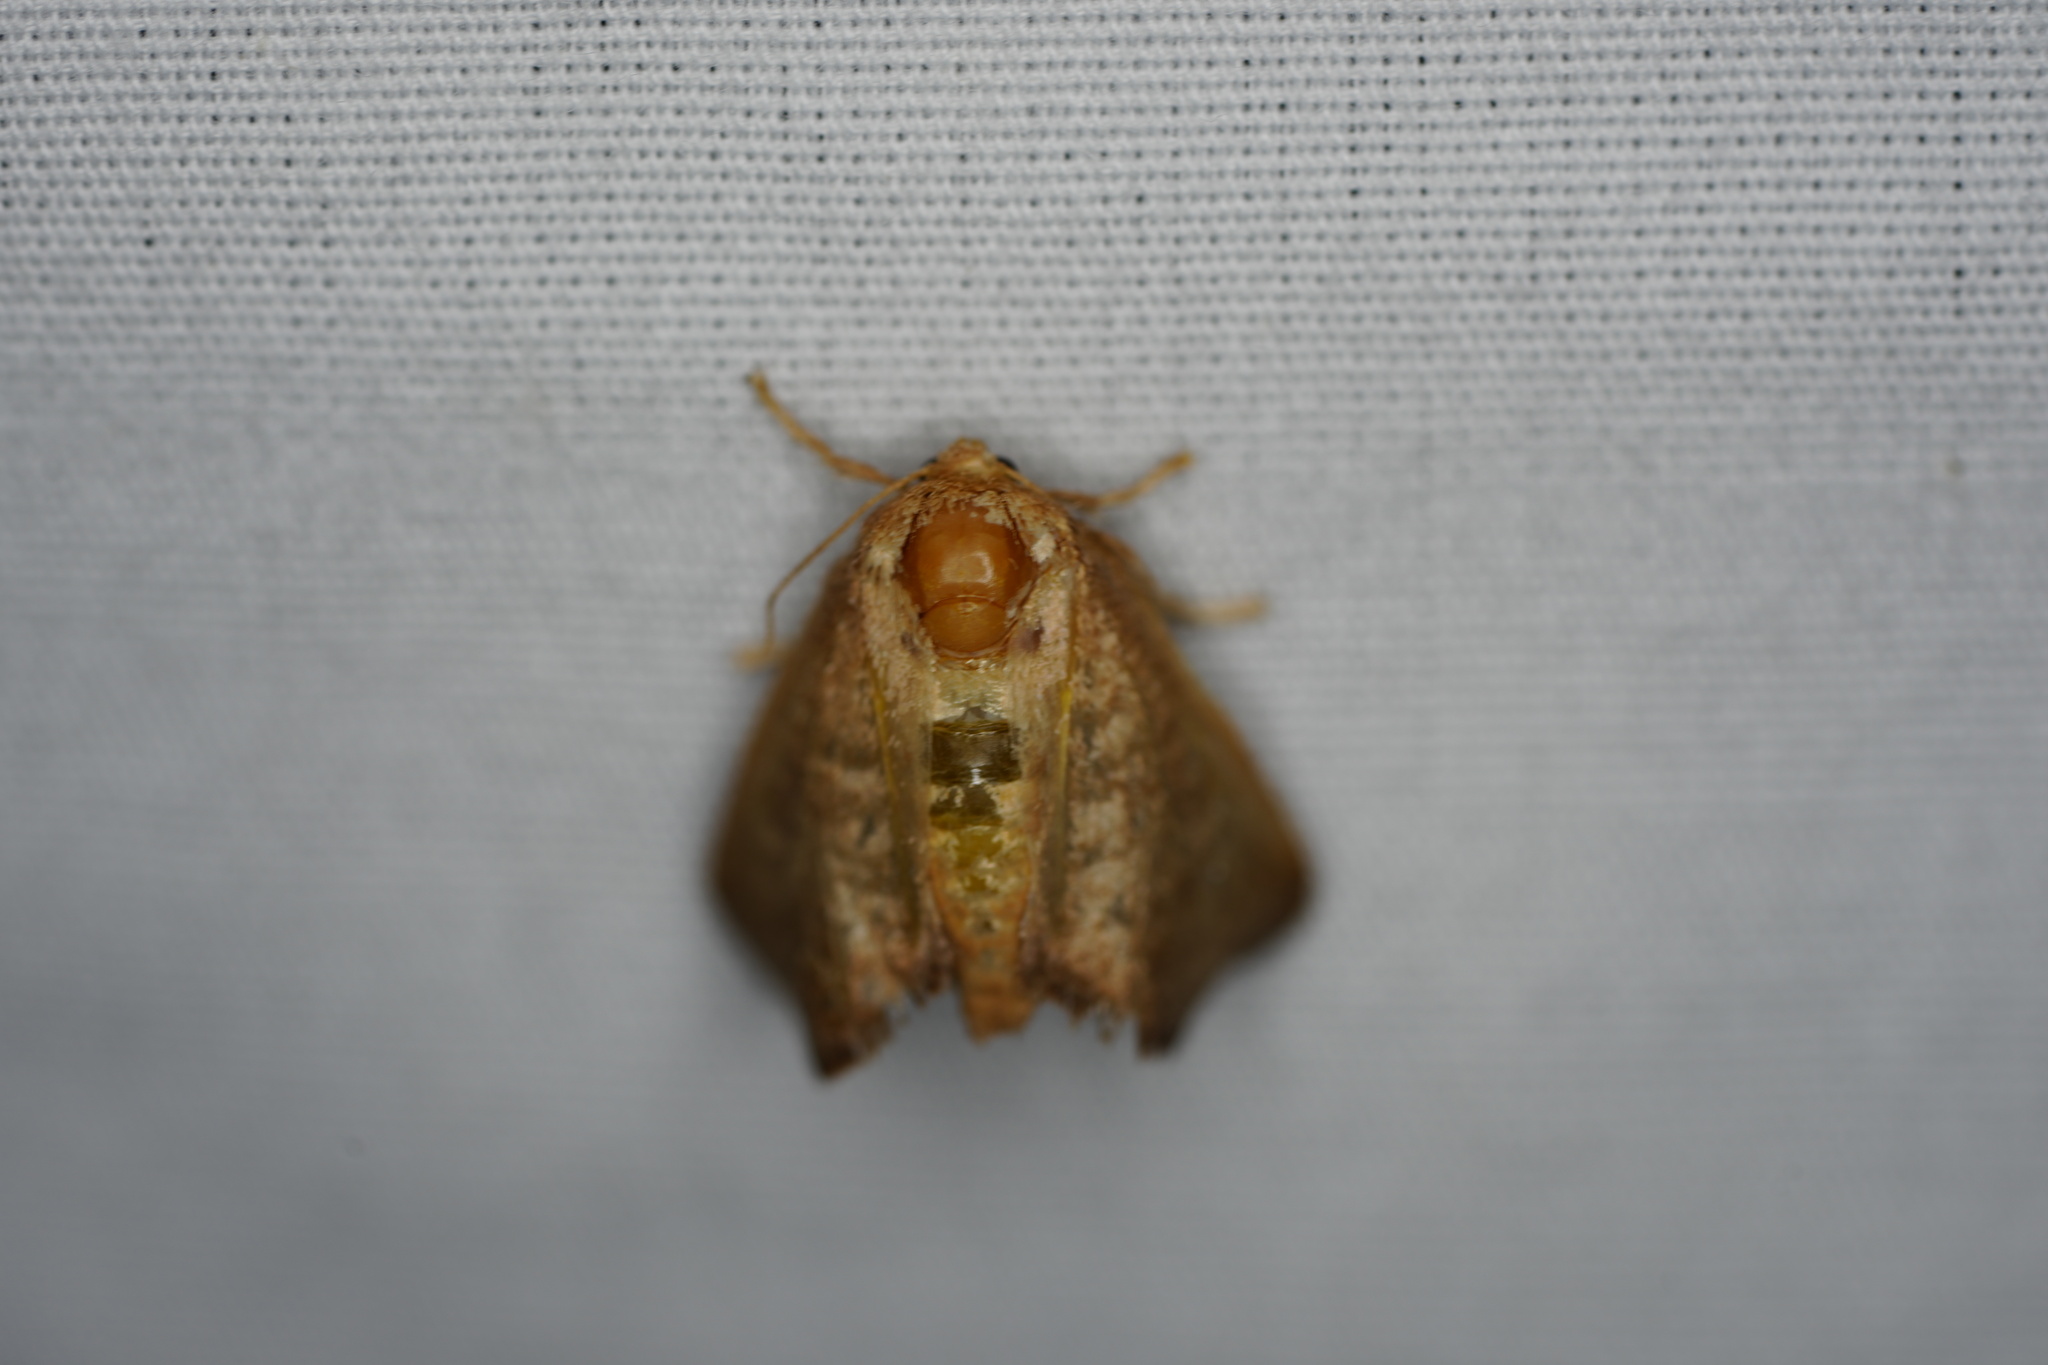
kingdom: Animalia
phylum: Arthropoda
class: Insecta
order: Lepidoptera
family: Limacodidae
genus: Isa
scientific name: Isa textula
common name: Crowned slug moth
